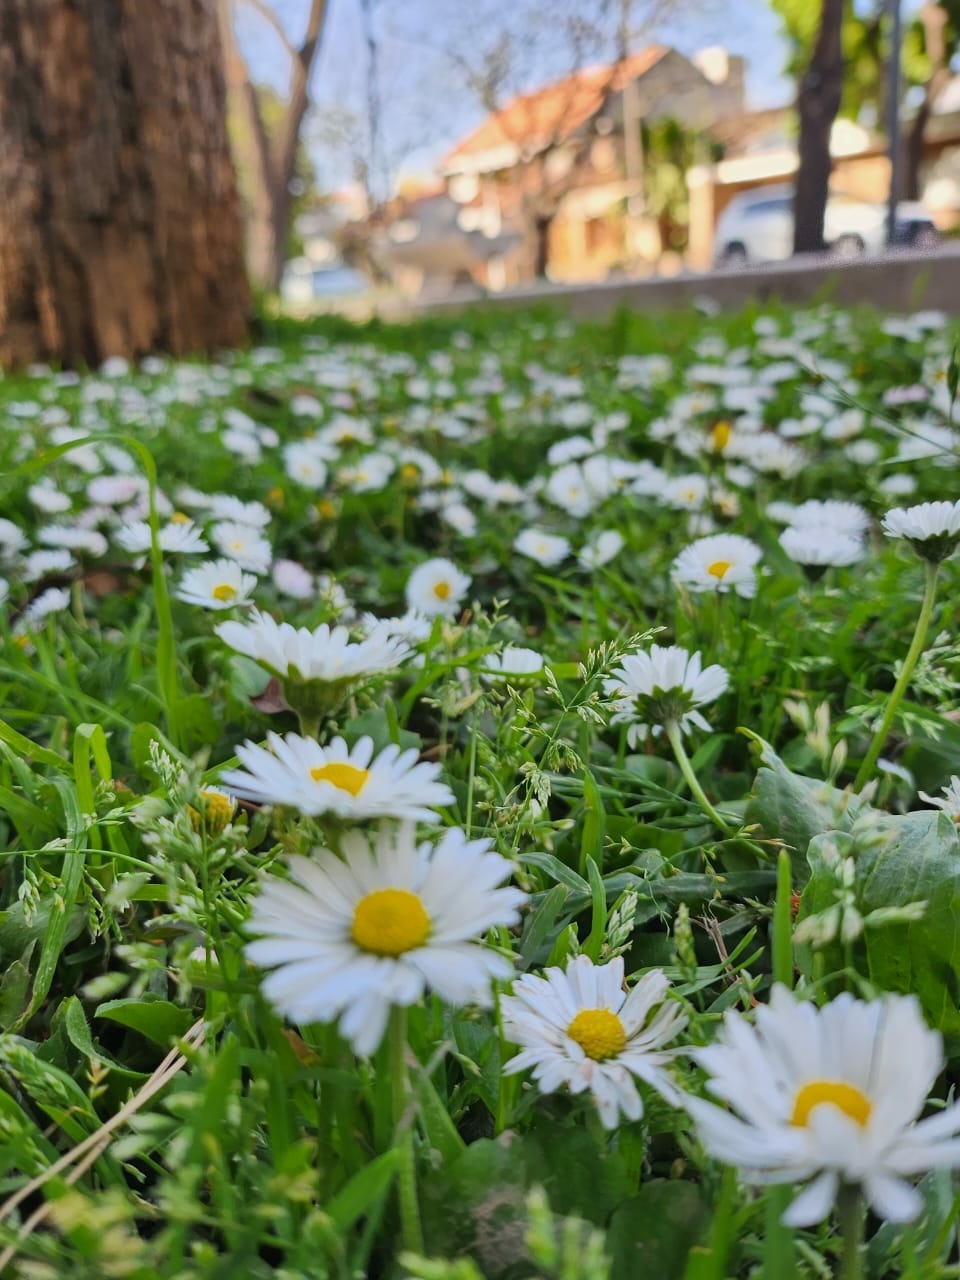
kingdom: Plantae
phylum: Tracheophyta
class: Magnoliopsida
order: Asterales
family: Asteraceae
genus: Bellis
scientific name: Bellis perennis
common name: Lawndaisy
